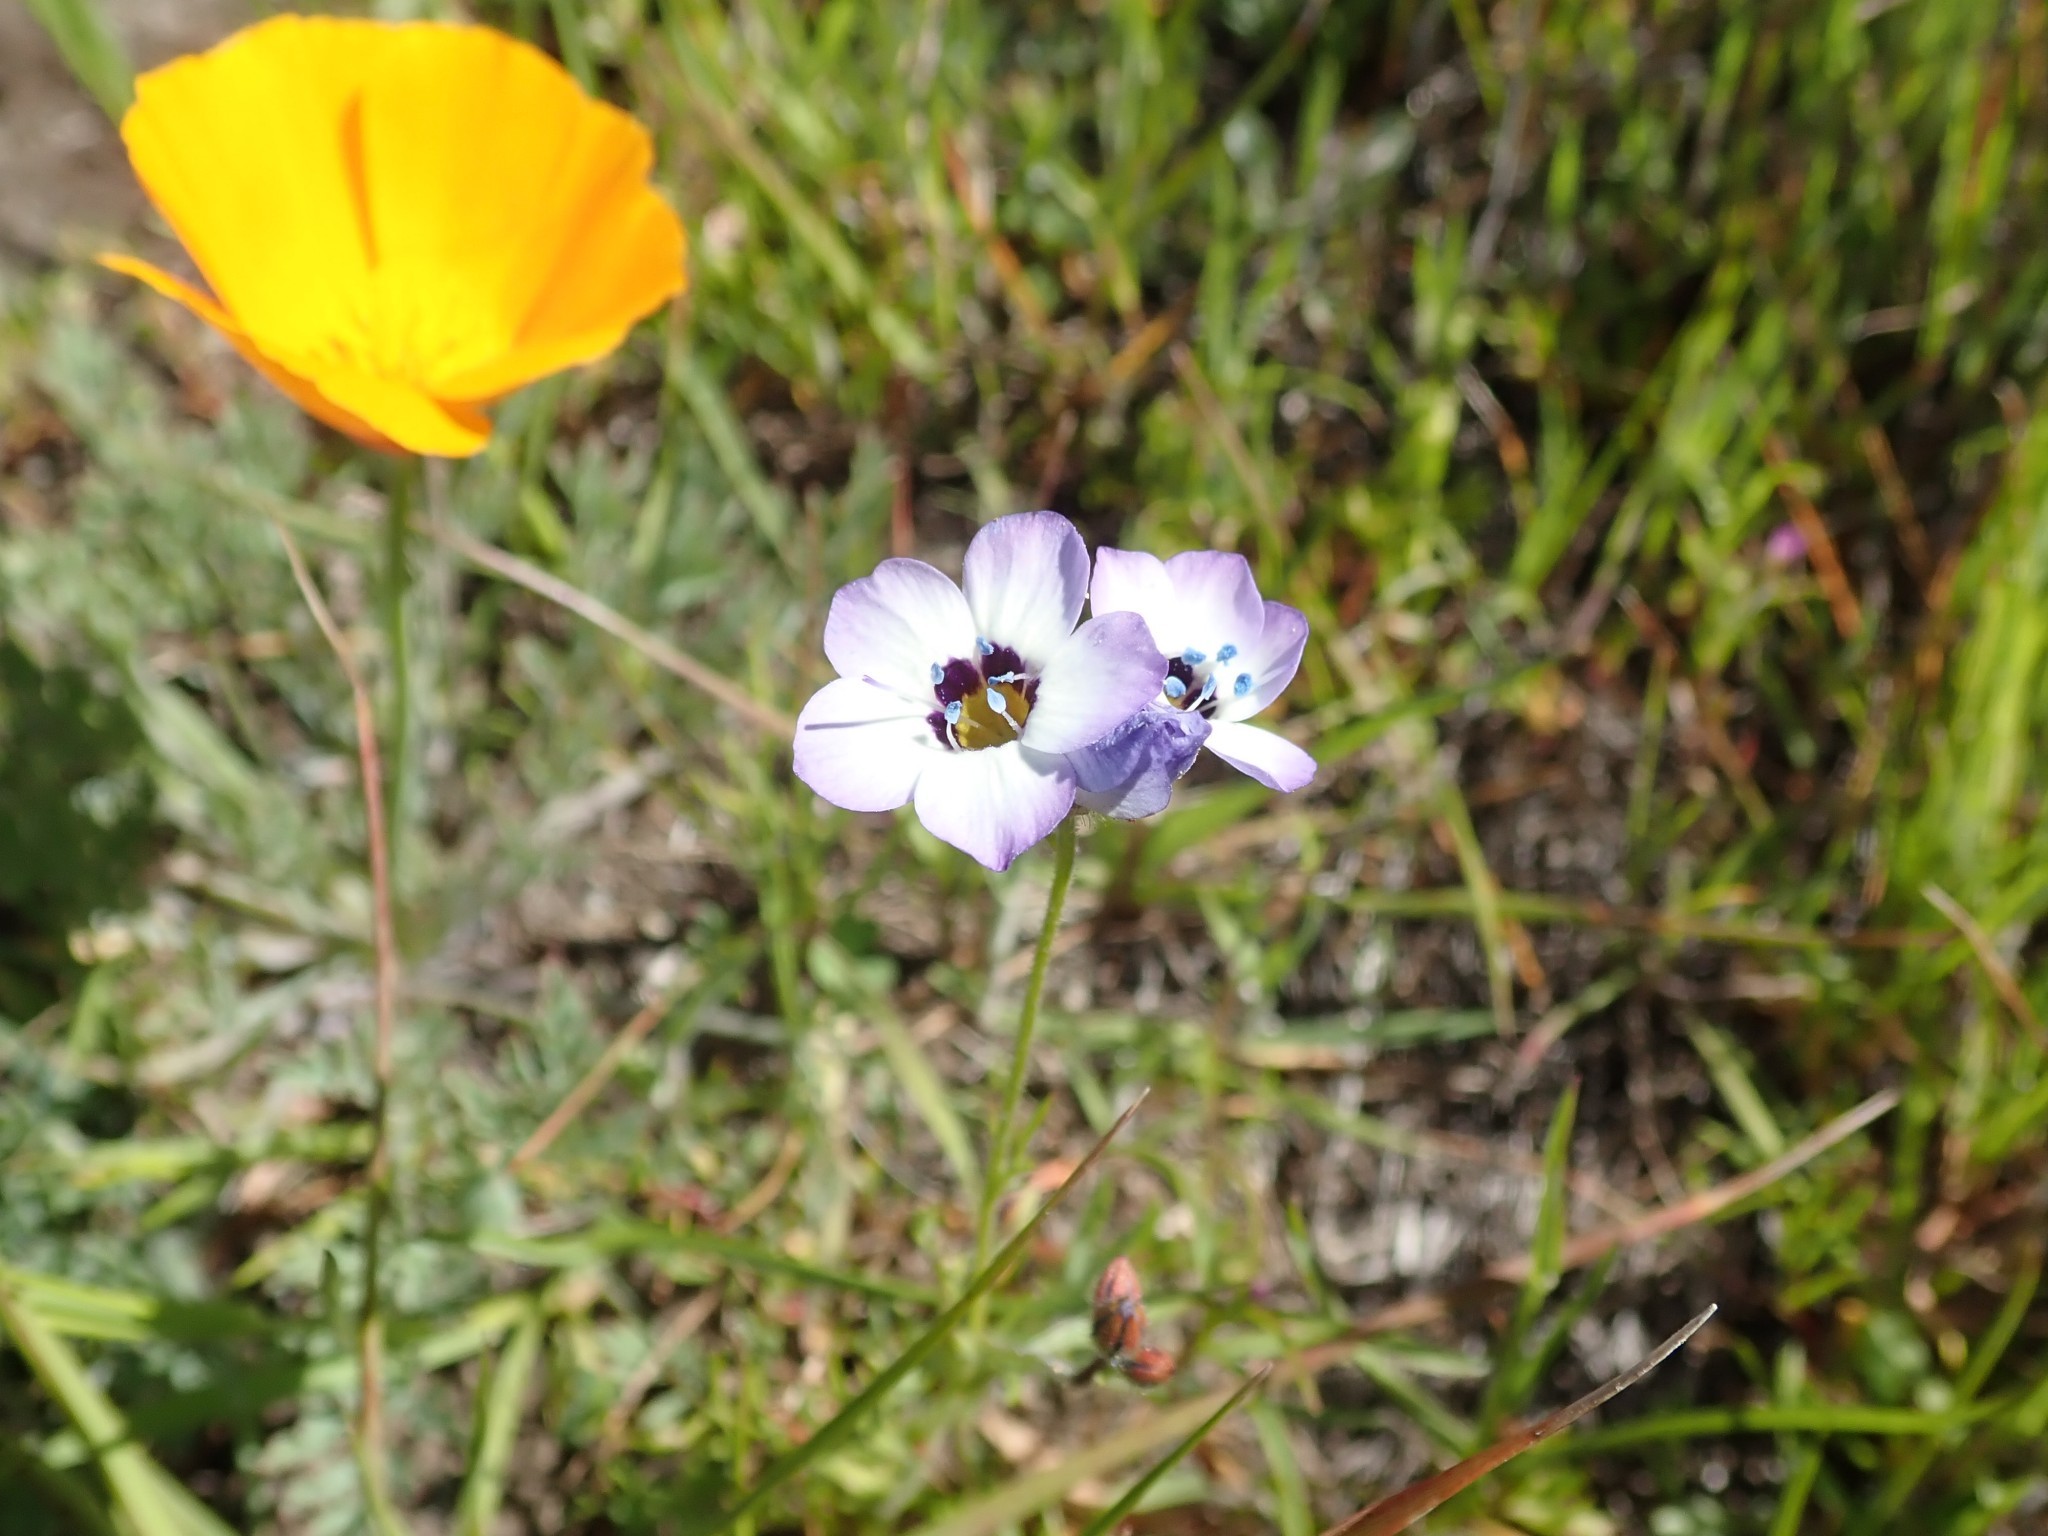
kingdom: Plantae
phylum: Tracheophyta
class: Magnoliopsida
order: Ericales
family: Polemoniaceae
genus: Gilia
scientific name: Gilia tricolor
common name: Bird's-eyes
